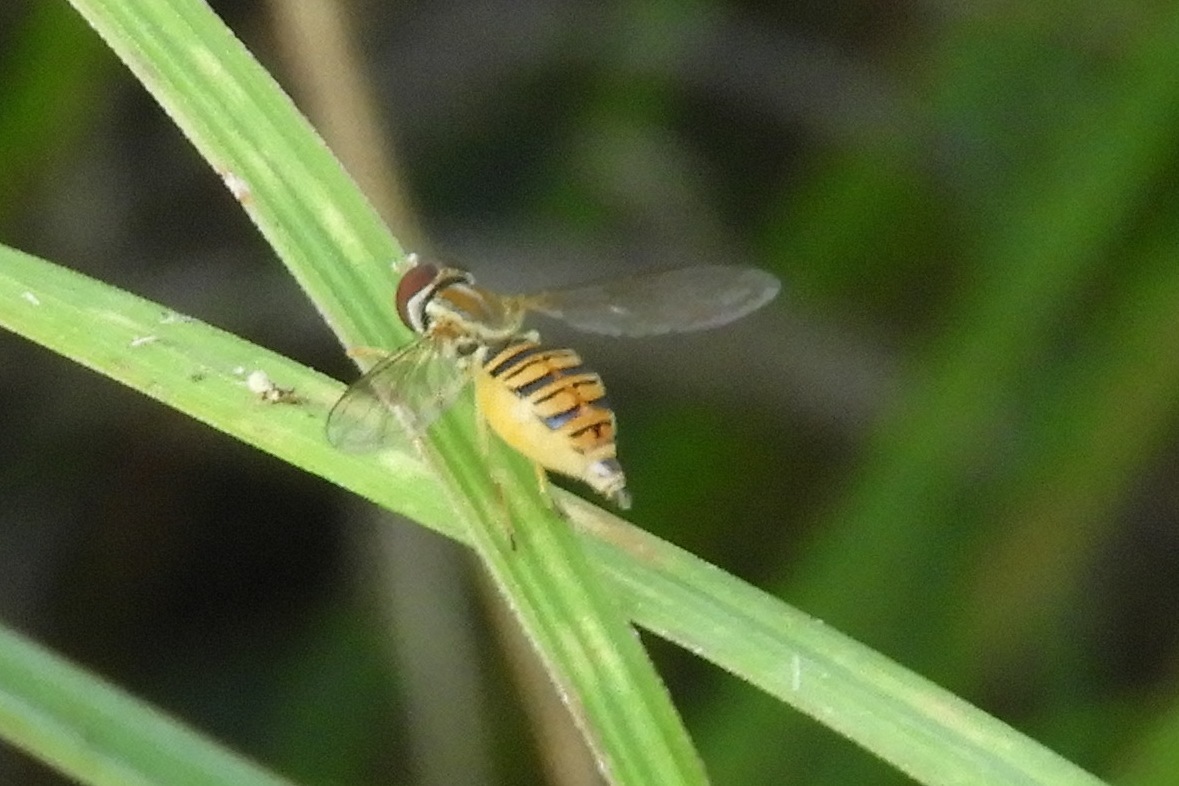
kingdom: Animalia
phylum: Arthropoda
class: Insecta
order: Diptera
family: Syrphidae
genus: Toxomerus
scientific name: Toxomerus politus
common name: Maize calligrapher
